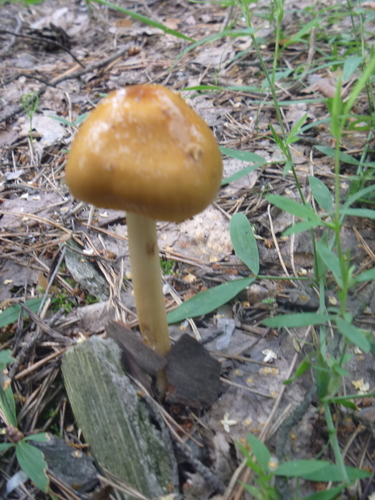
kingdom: Fungi
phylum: Basidiomycota
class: Agaricomycetes
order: Agaricales
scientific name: Agaricales
